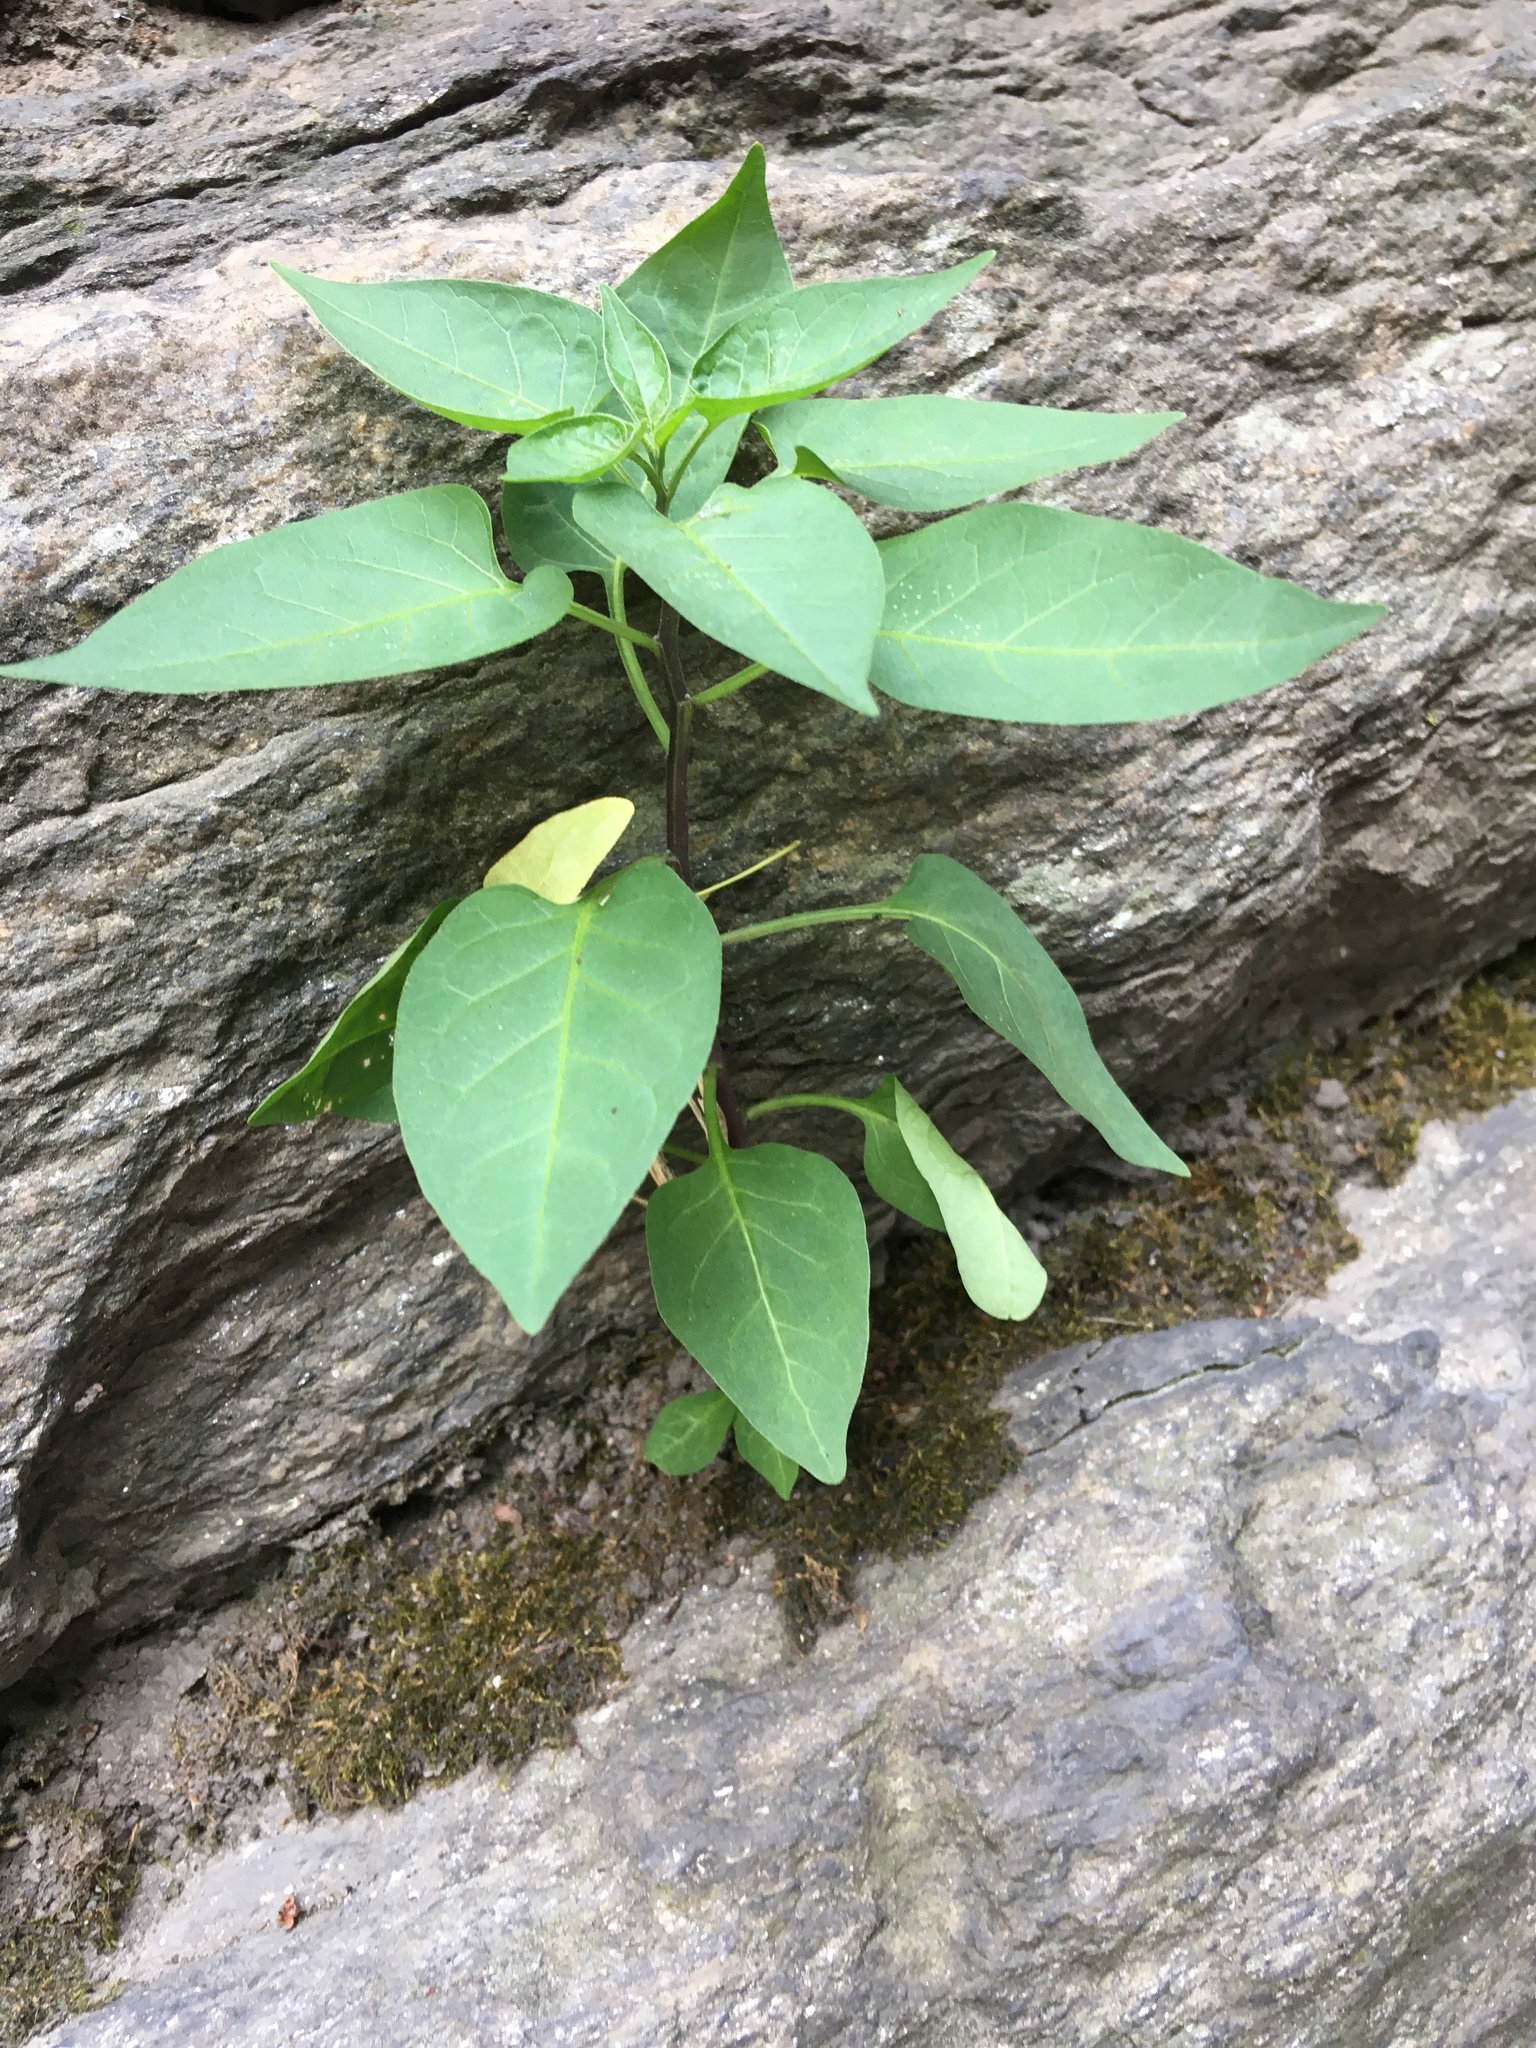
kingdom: Plantae
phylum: Tracheophyta
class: Magnoliopsida
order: Solanales
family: Solanaceae
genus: Solanum
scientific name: Solanum dulcamara
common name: Climbing nightshade
